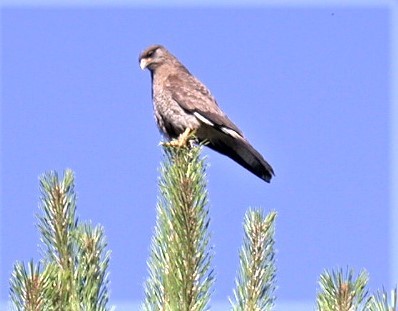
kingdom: Animalia
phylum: Chordata
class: Aves
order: Falconiformes
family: Falconidae
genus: Daptrius
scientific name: Daptrius
